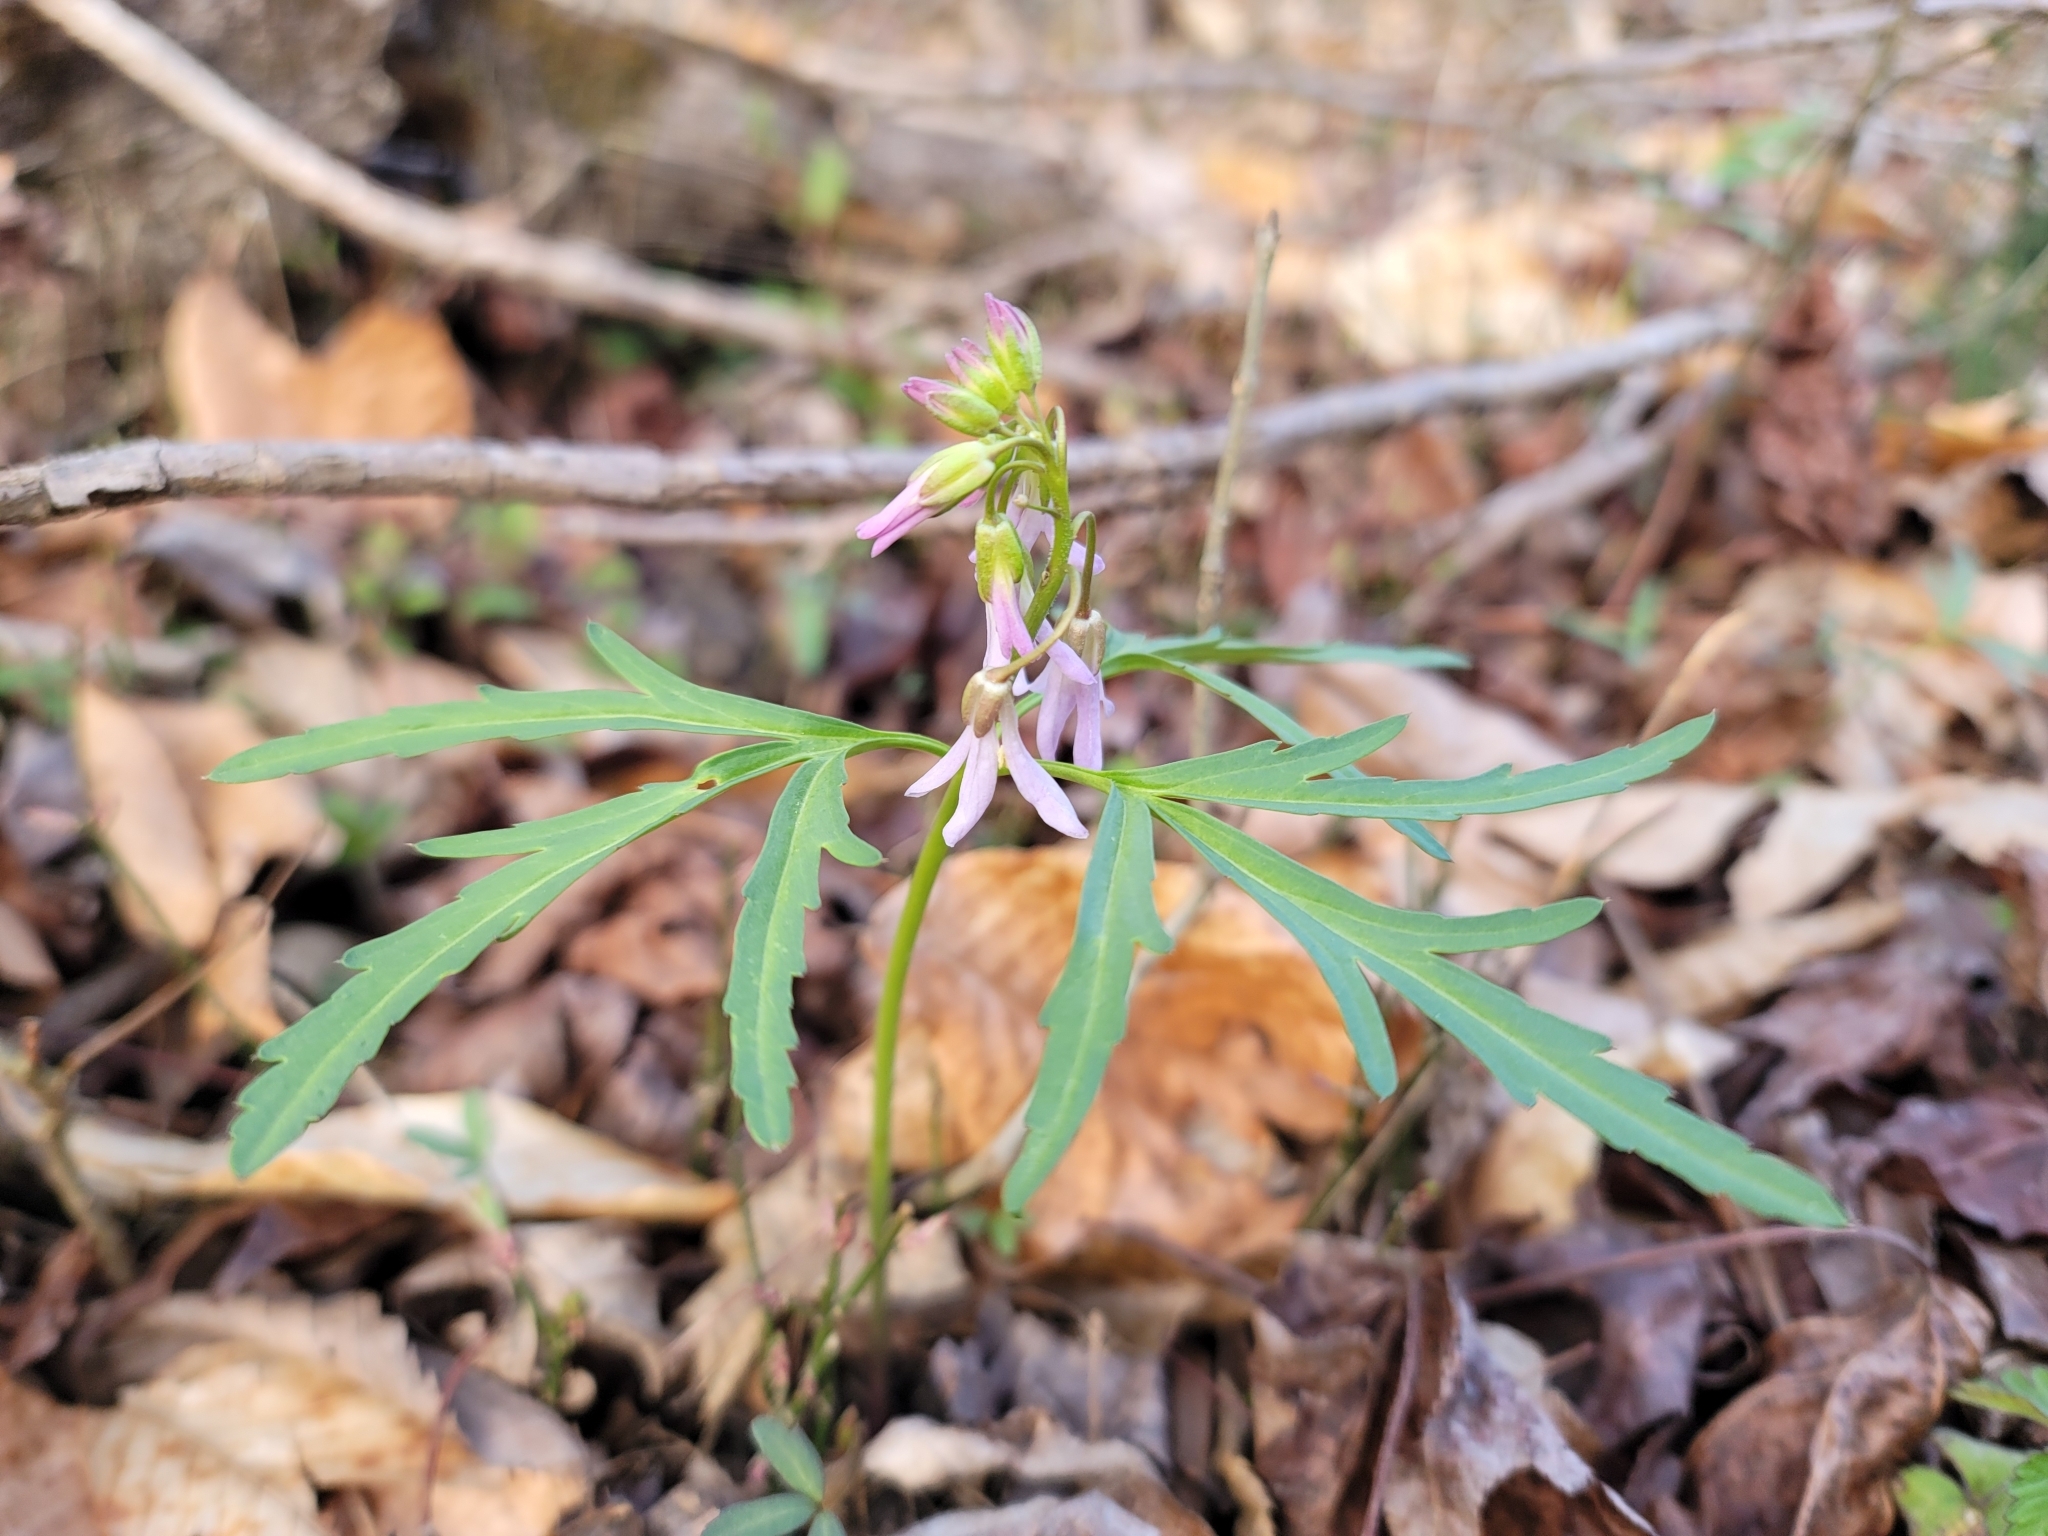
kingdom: Plantae
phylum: Tracheophyta
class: Magnoliopsida
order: Brassicales
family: Brassicaceae
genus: Cardamine
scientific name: Cardamine concatenata
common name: Cut-leaf toothcup
